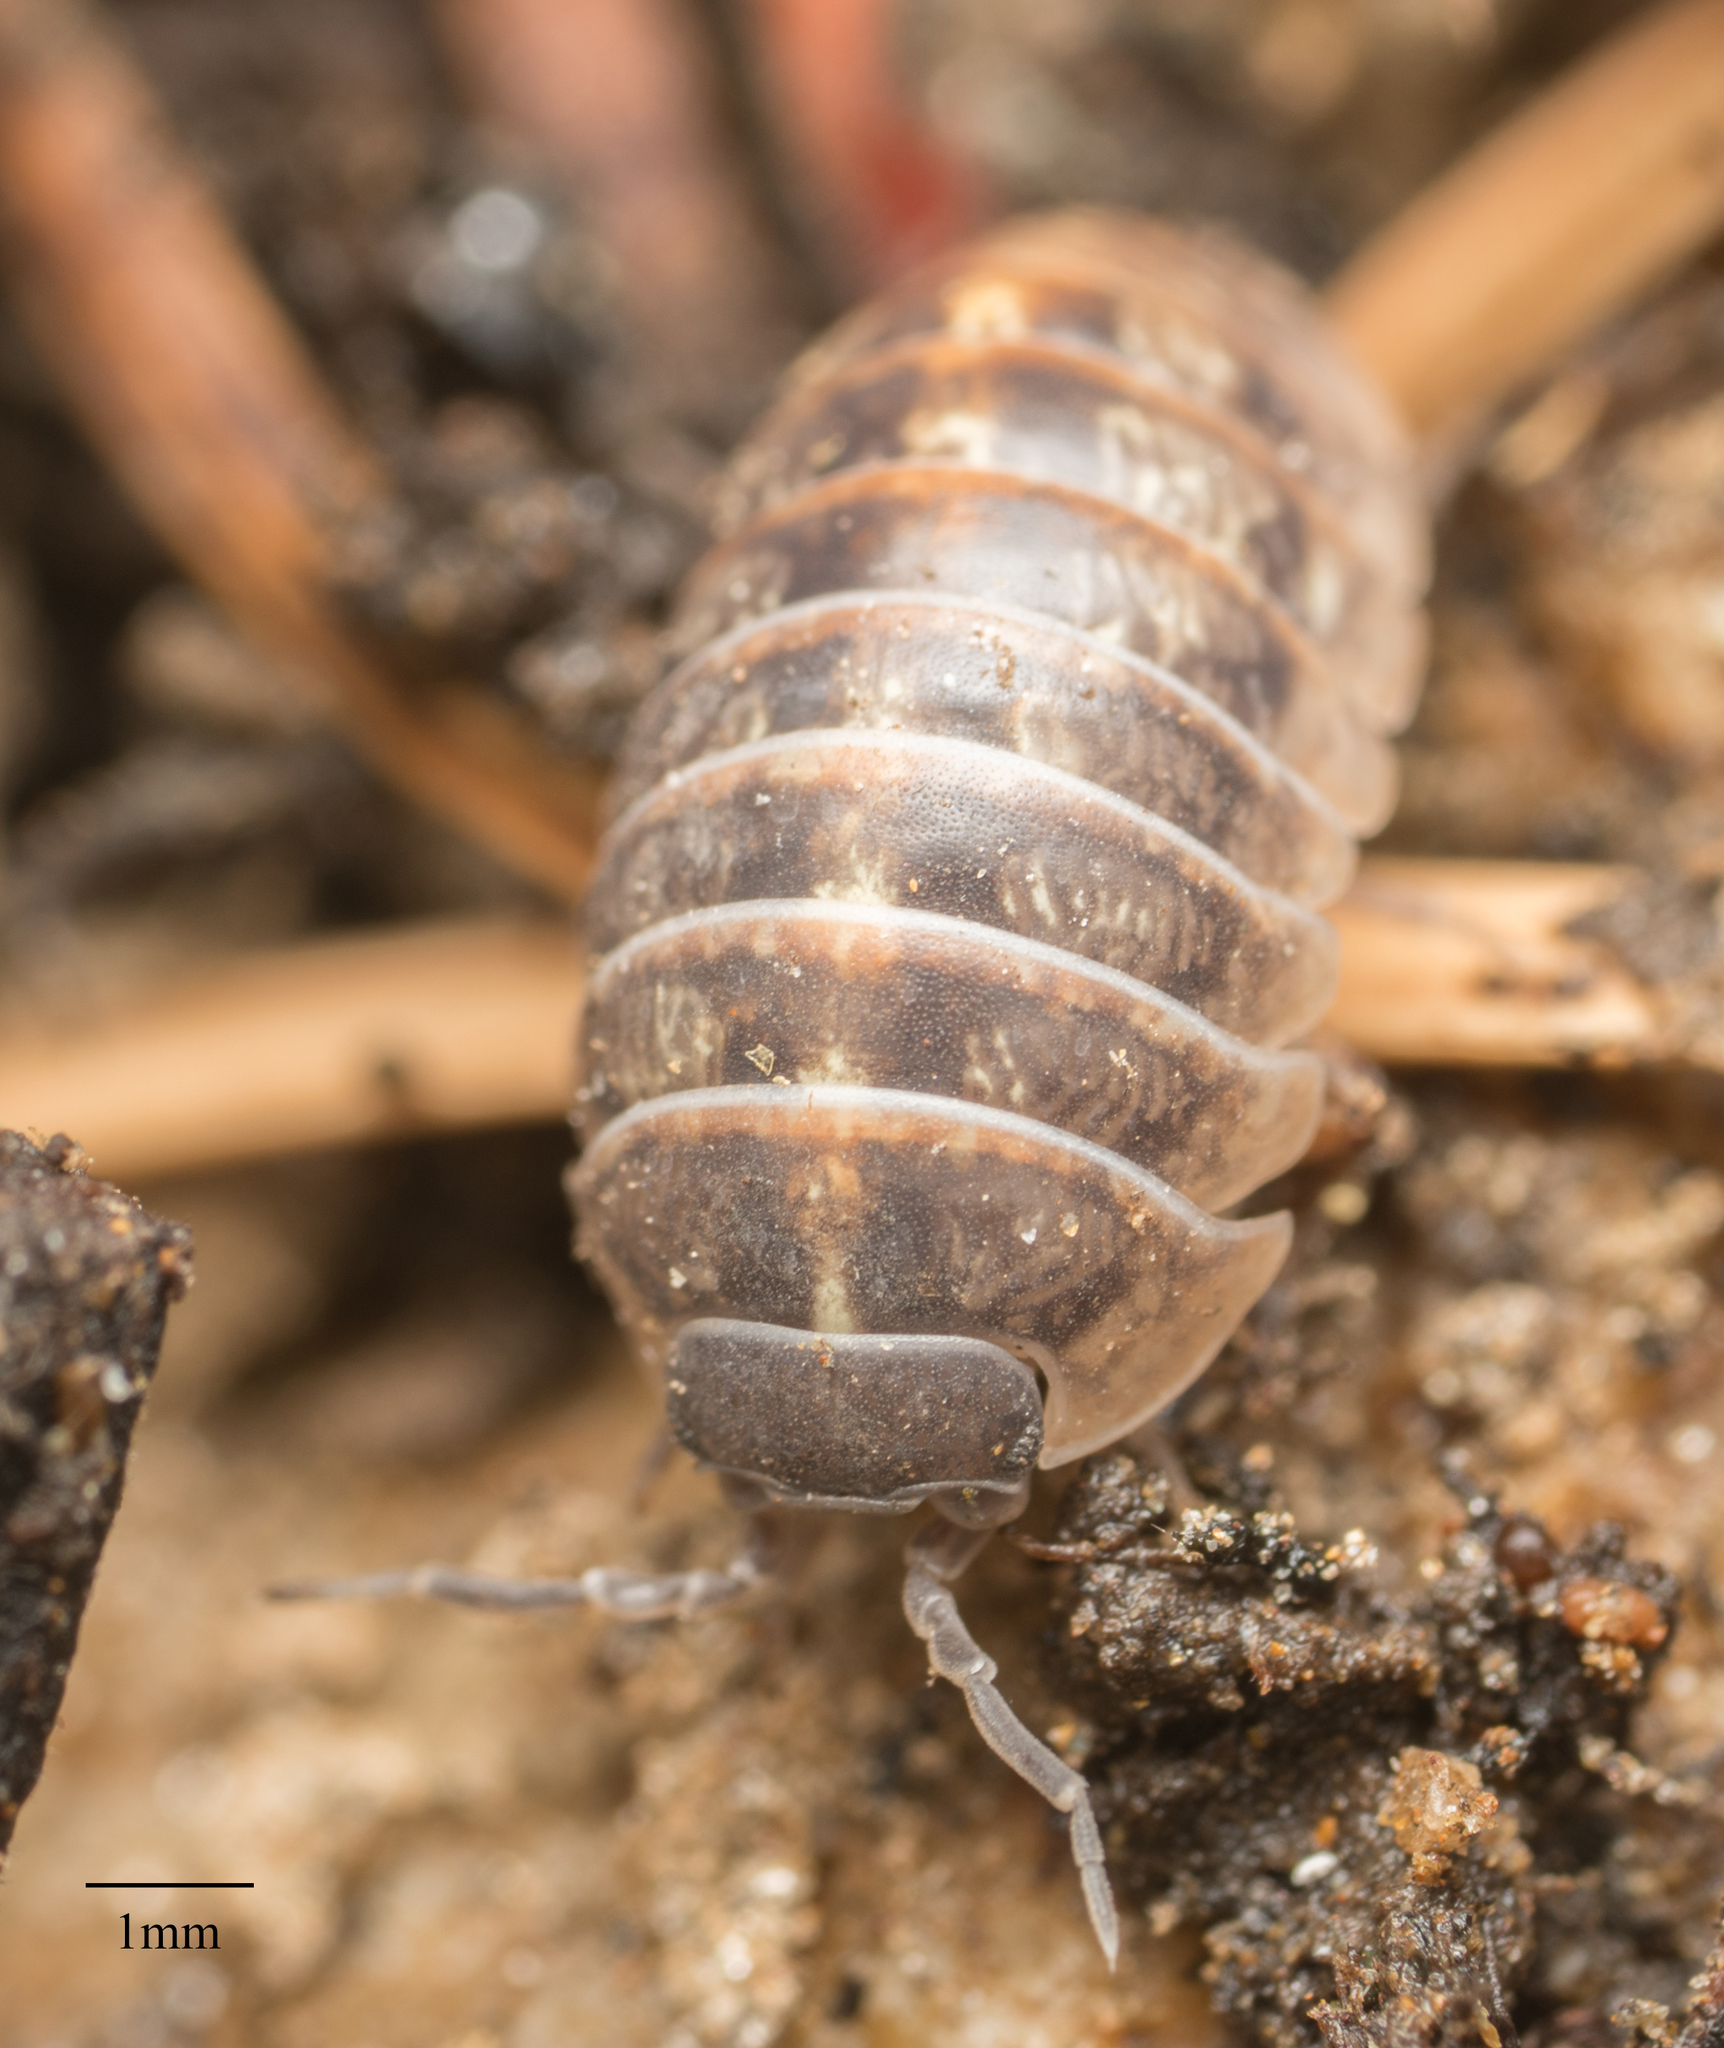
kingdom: Animalia
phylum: Arthropoda
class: Malacostraca
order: Isopoda
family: Armadillidiidae
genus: Armadillidium
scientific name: Armadillidium vulgare
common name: Common pill woodlouse
